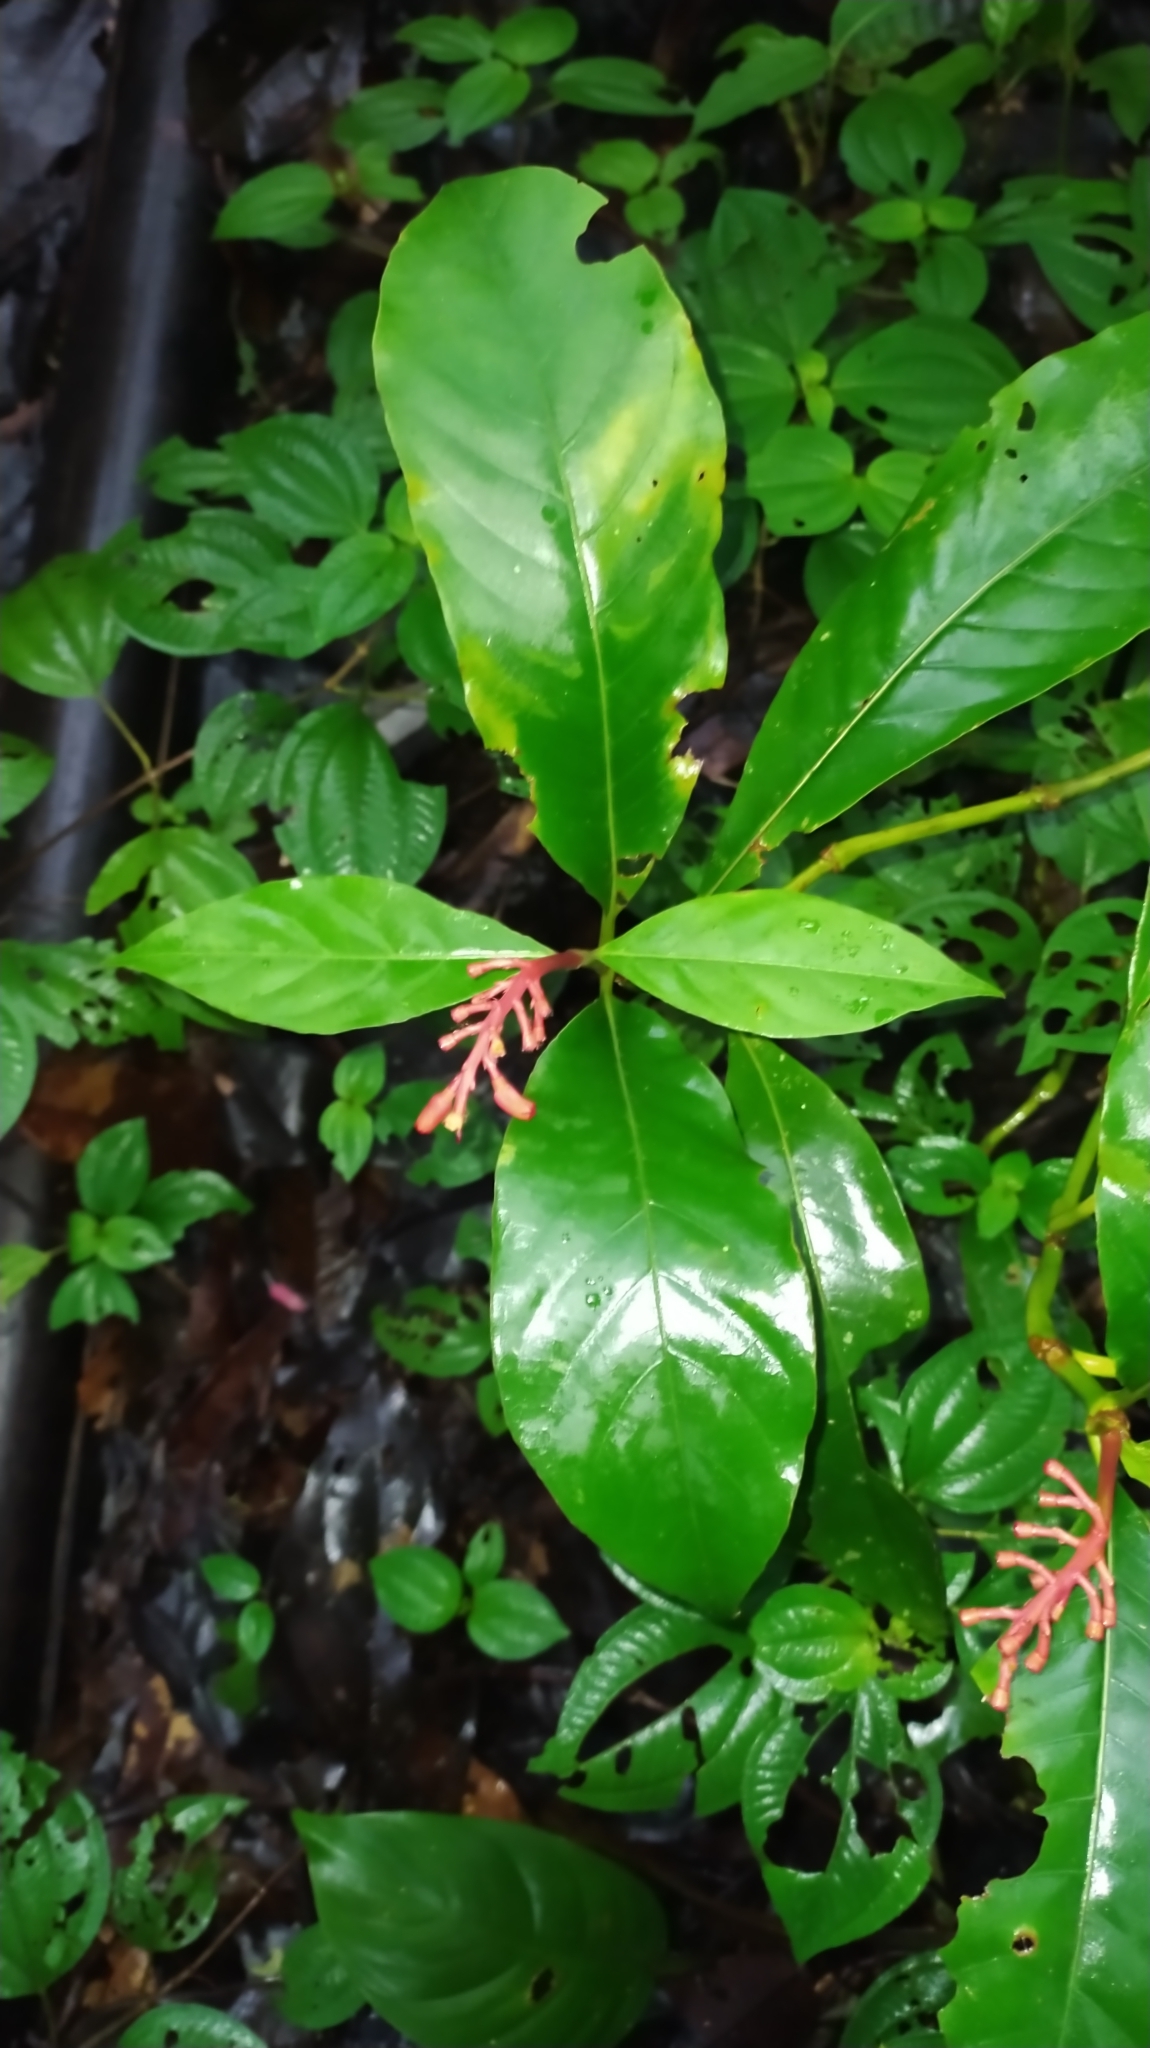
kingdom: Plantae
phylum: Tracheophyta
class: Magnoliopsida
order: Gentianales
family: Rubiaceae
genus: Palicourea
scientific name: Palicourea calophylla
